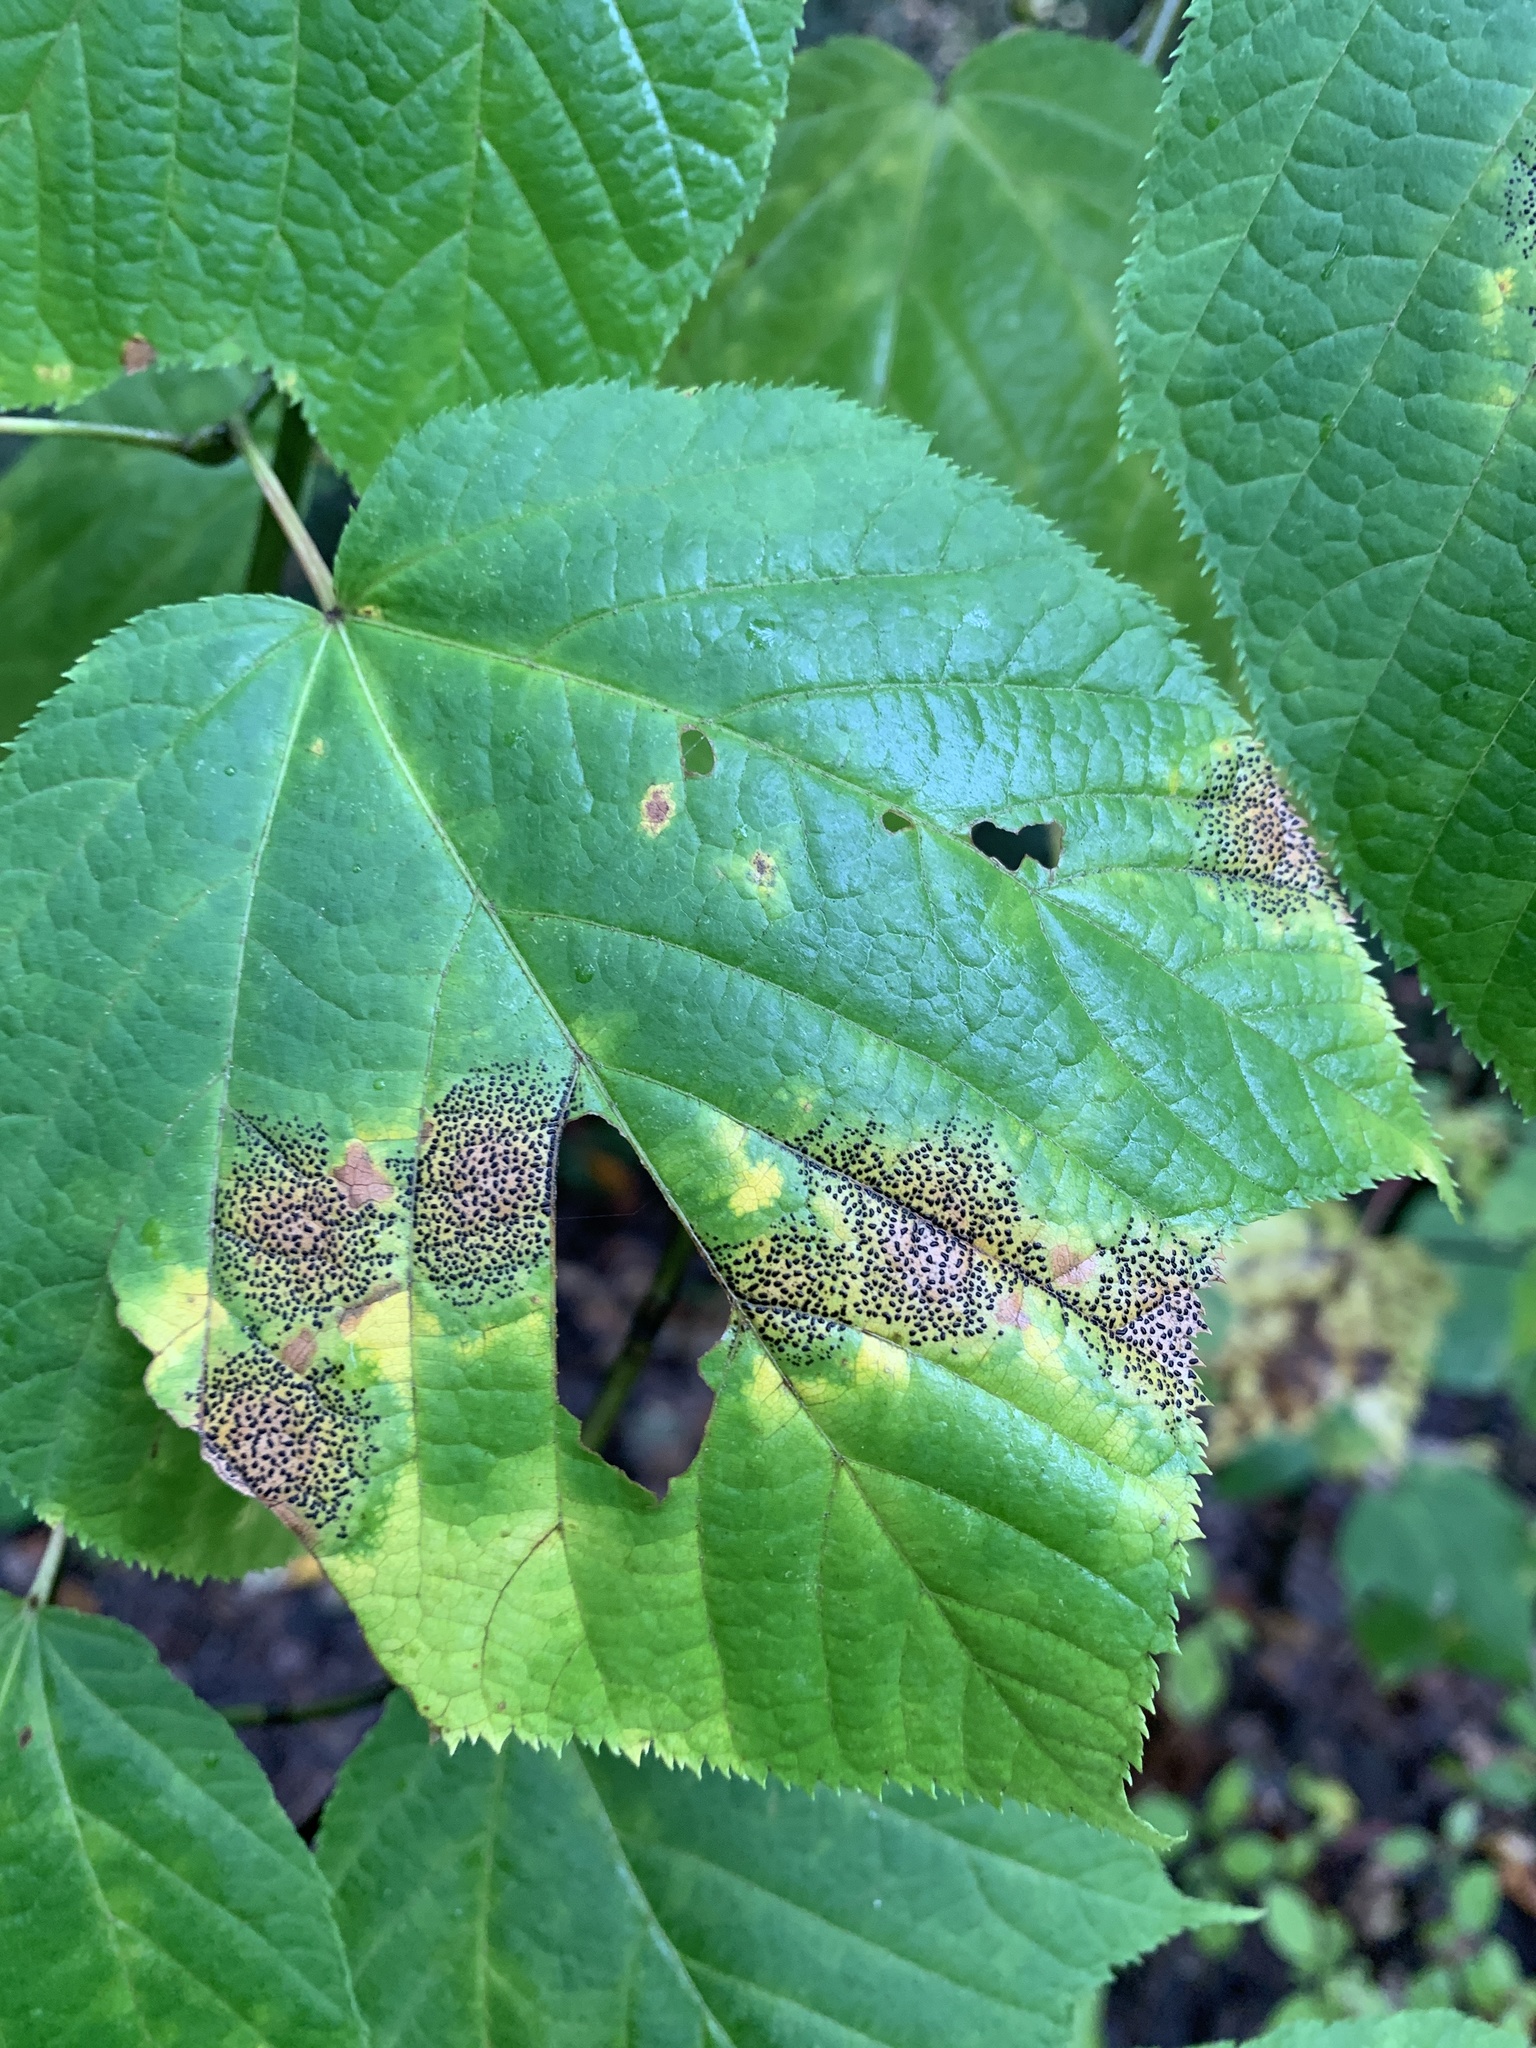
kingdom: Fungi
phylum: Ascomycota
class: Leotiomycetes
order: Rhytismatales
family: Rhytismataceae
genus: Rhytisma
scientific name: Rhytisma punctatum
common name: Speckled tar spot
